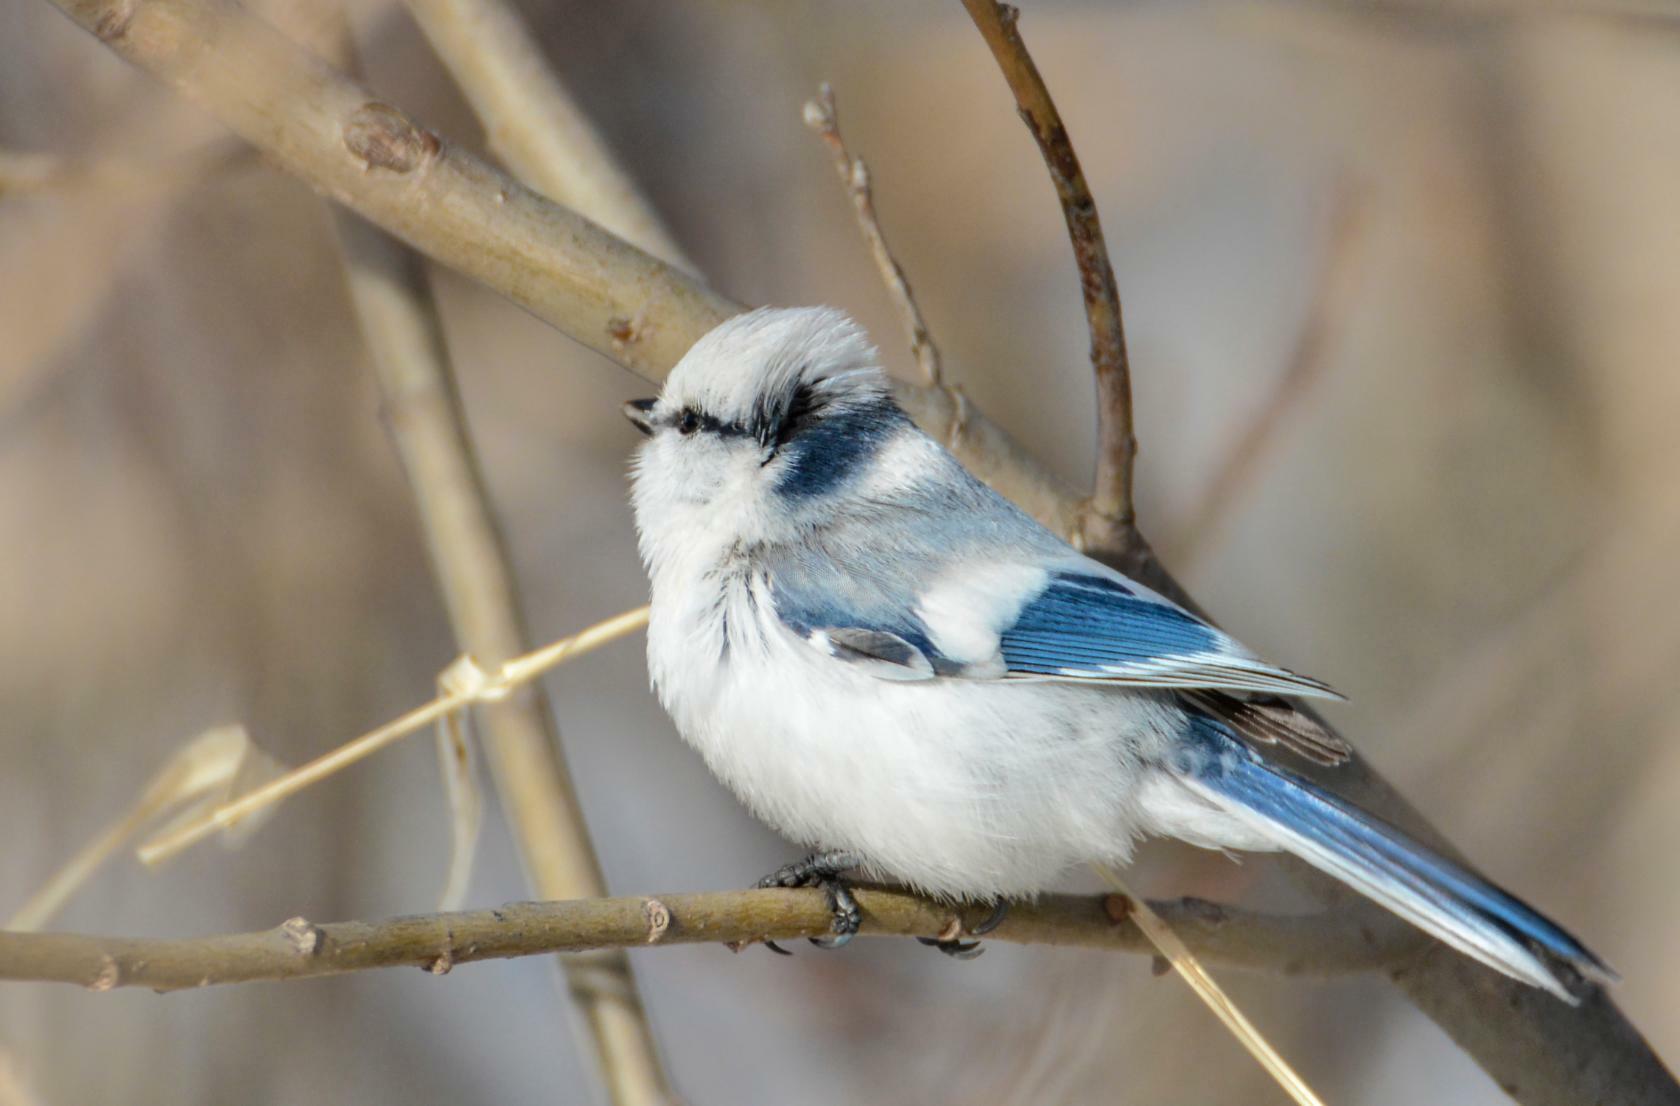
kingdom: Animalia
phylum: Chordata
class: Aves
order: Passeriformes
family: Paridae
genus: Cyanistes
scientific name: Cyanistes cyanus
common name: Azure tit
